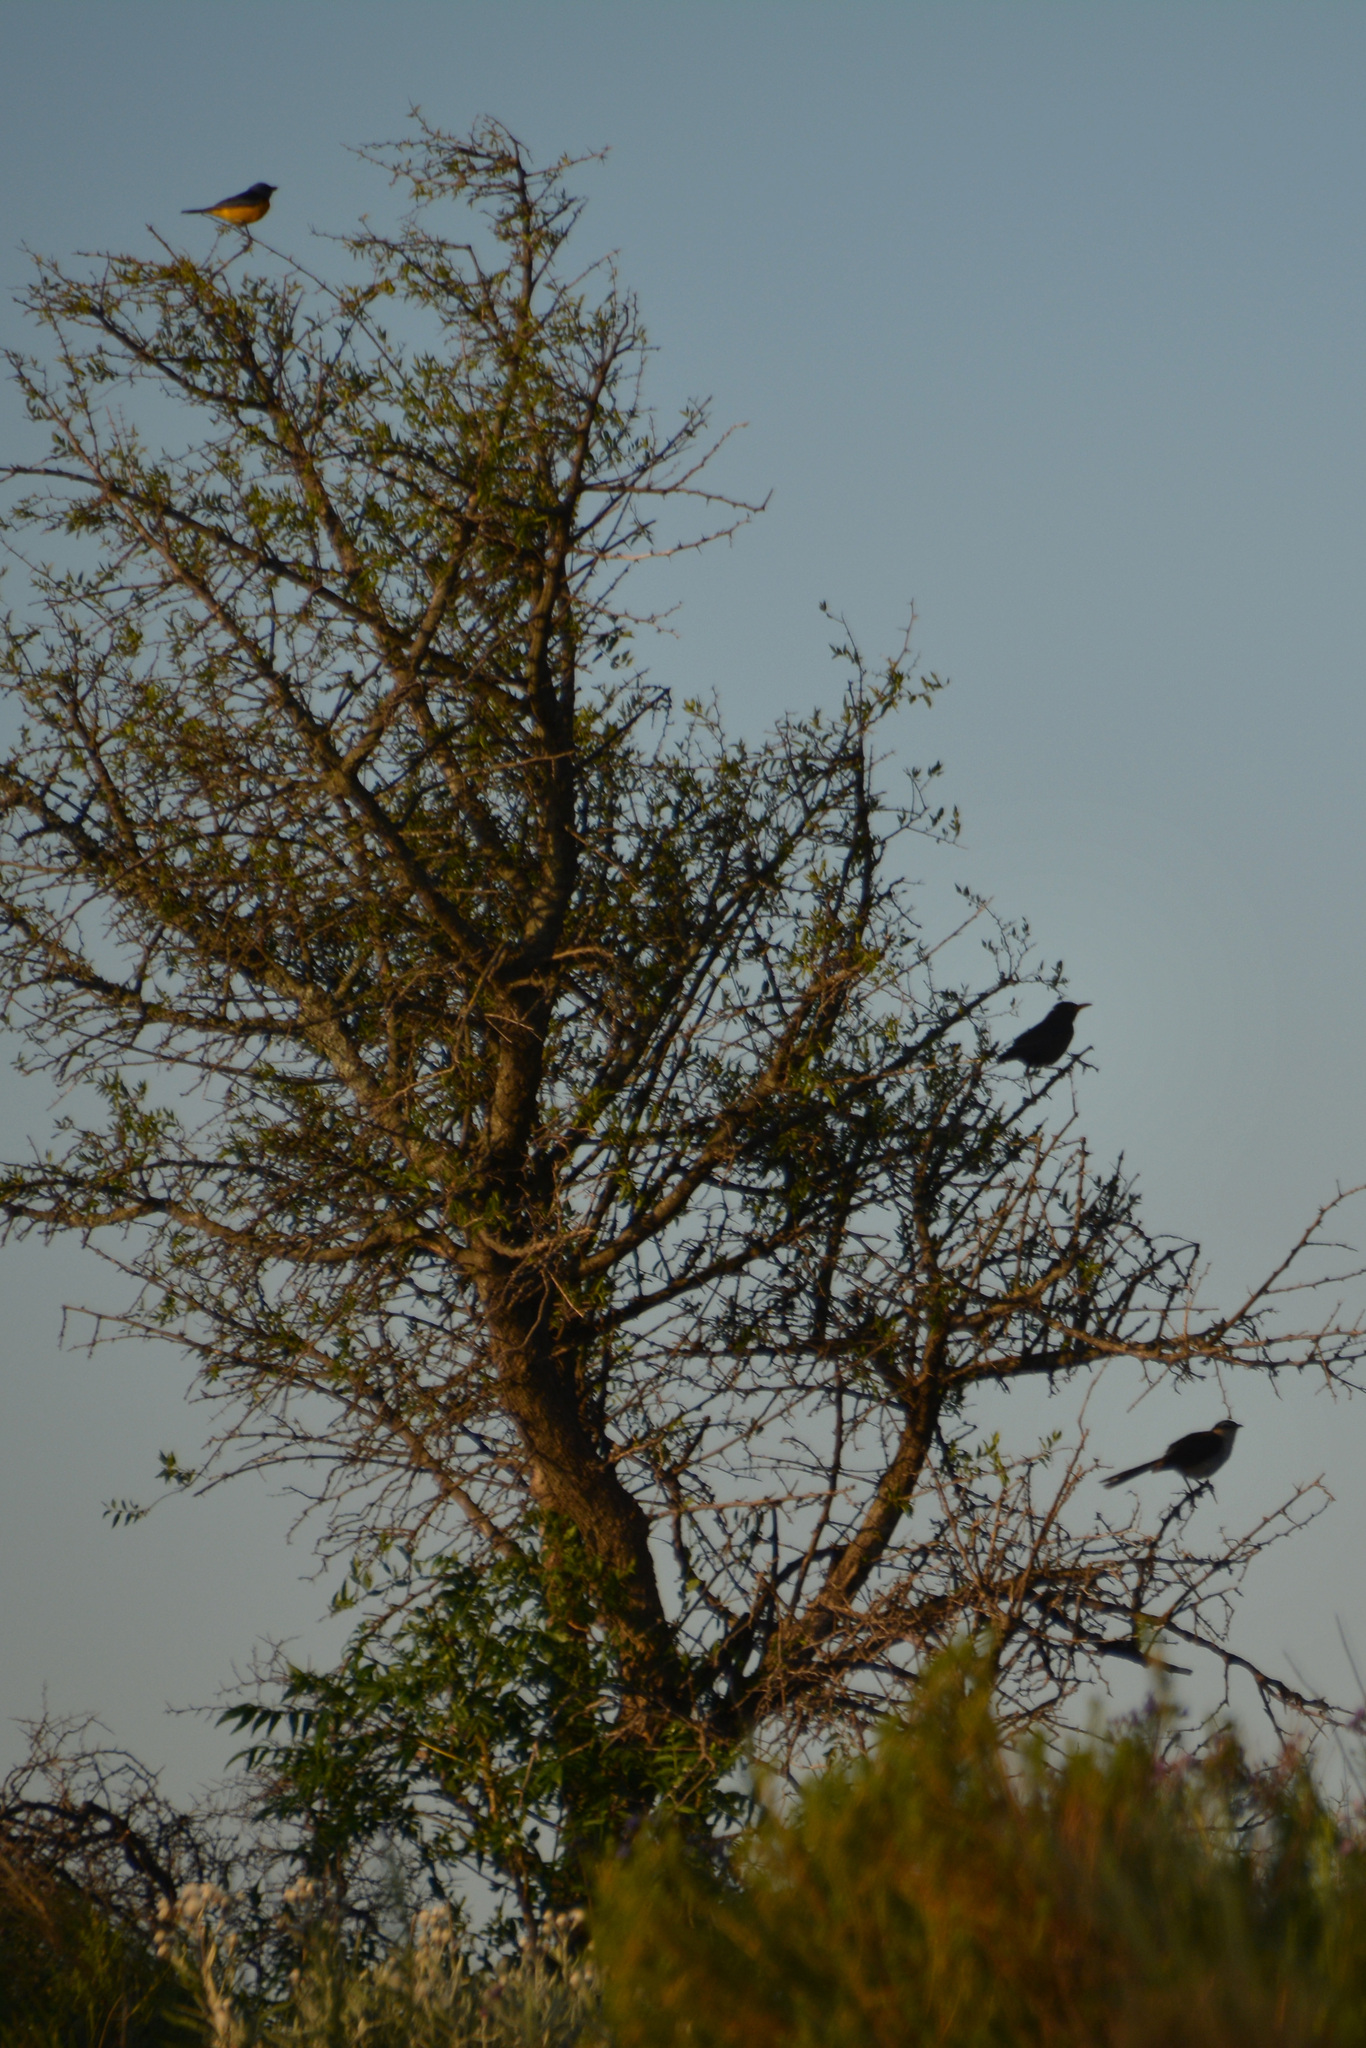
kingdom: Animalia
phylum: Chordata
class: Aves
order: Passeriformes
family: Mimidae
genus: Mimus
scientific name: Mimus saturninus
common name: Chalk-browed mockingbird
